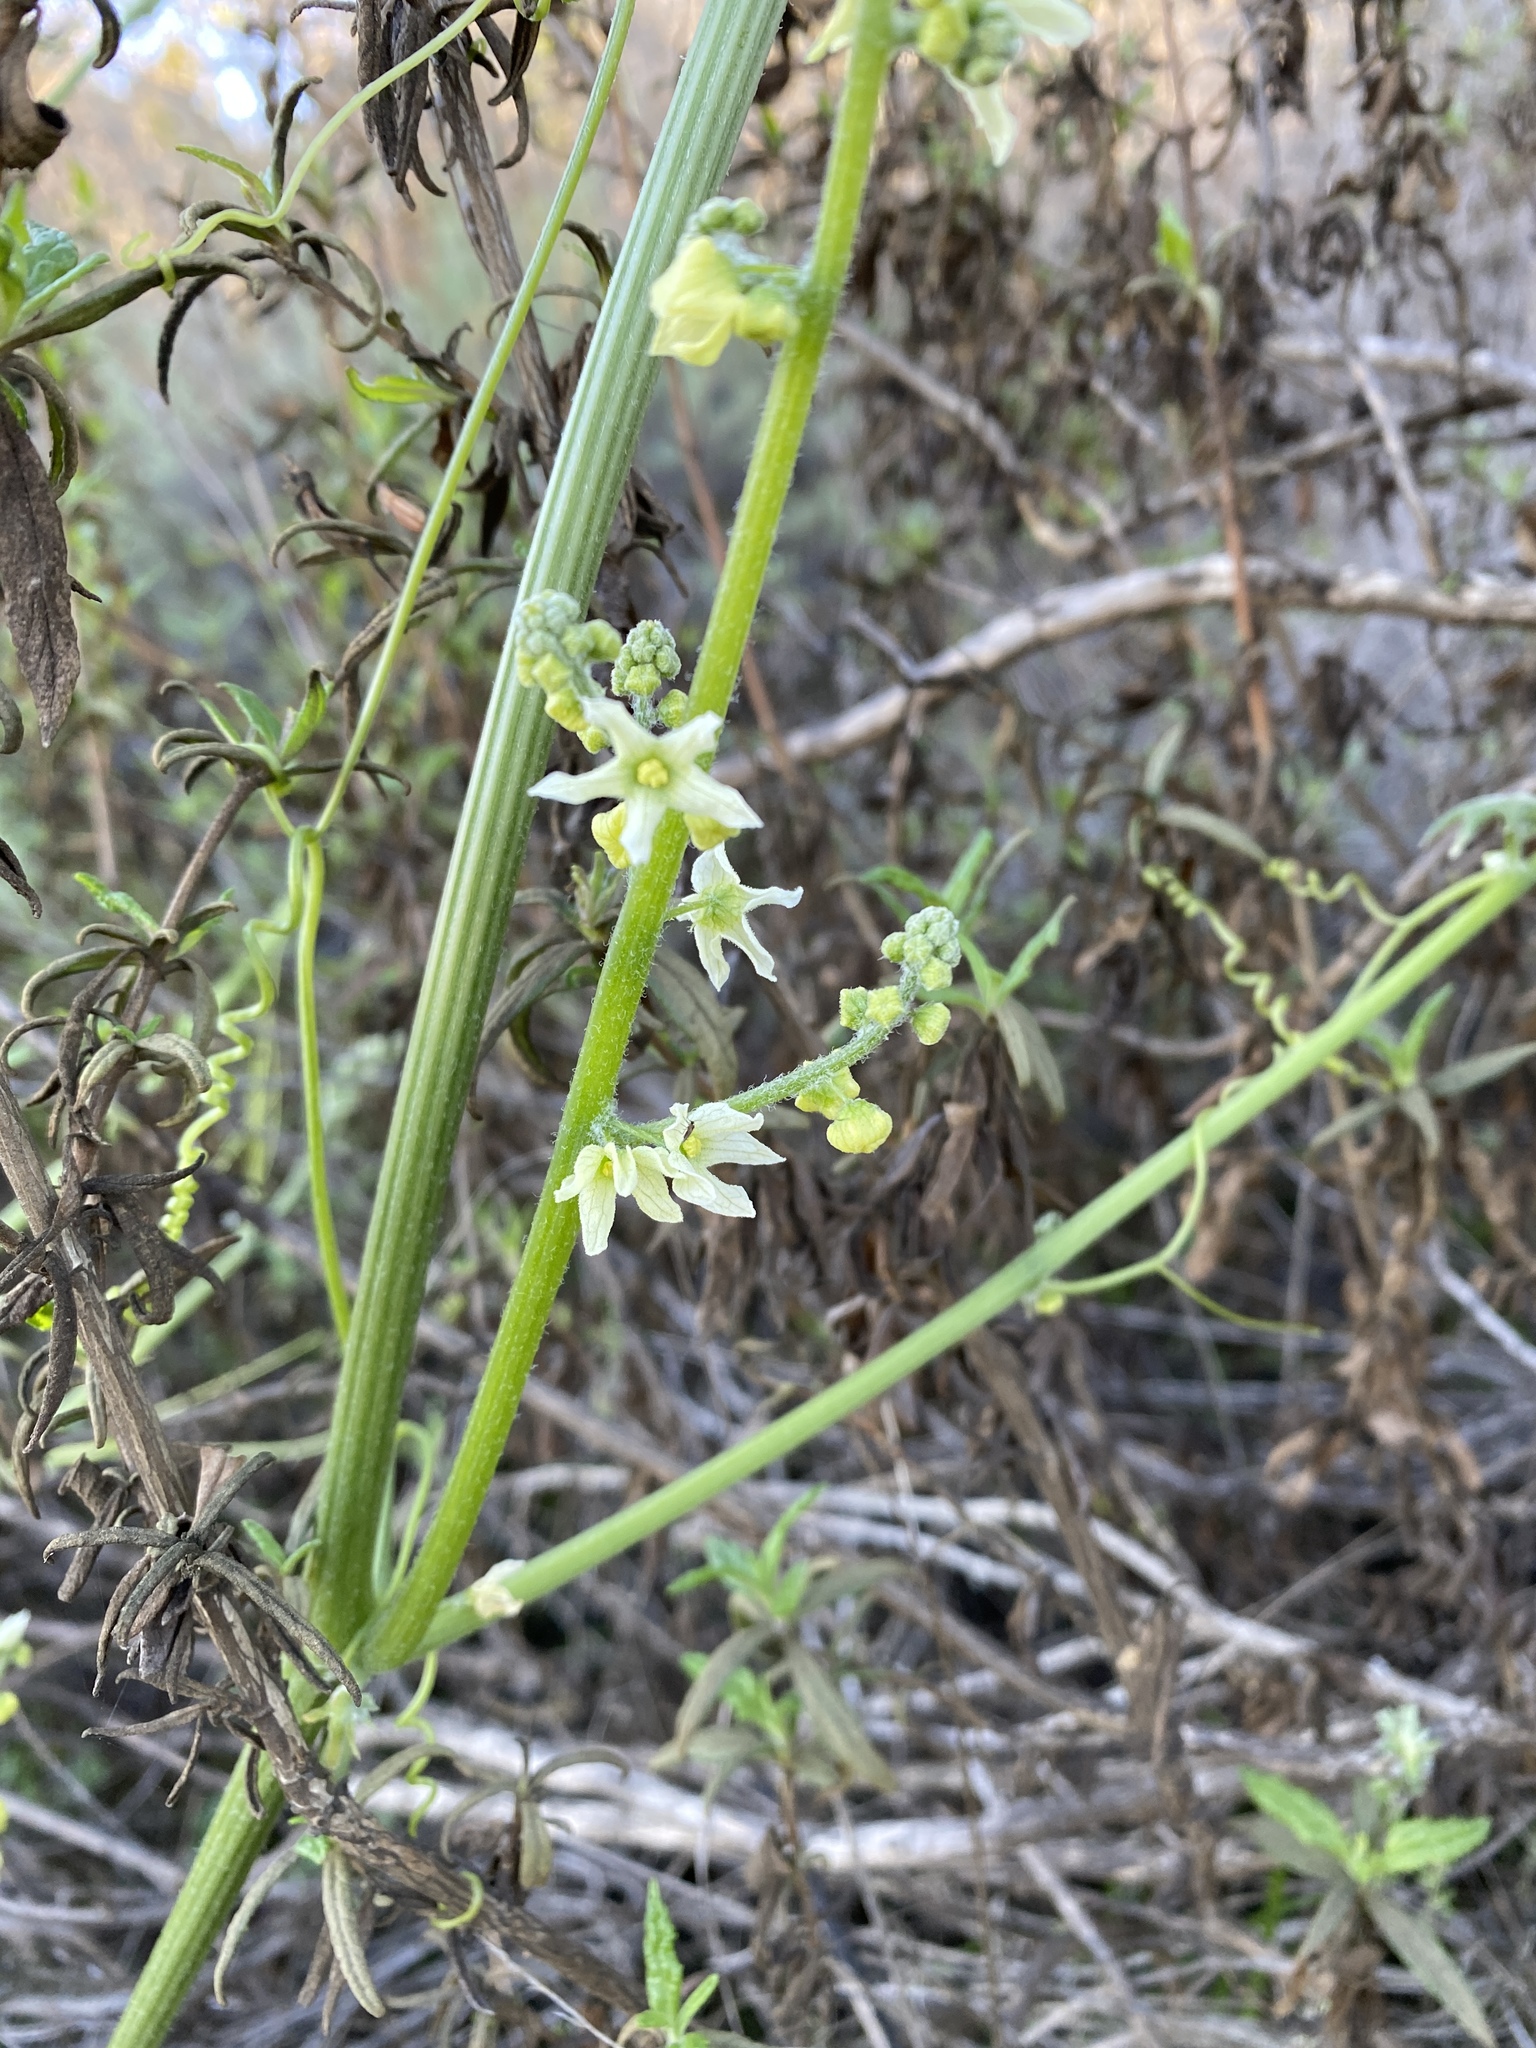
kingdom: Plantae
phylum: Tracheophyta
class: Magnoliopsida
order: Cucurbitales
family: Cucurbitaceae
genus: Marah
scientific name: Marah fabacea
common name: California manroot
